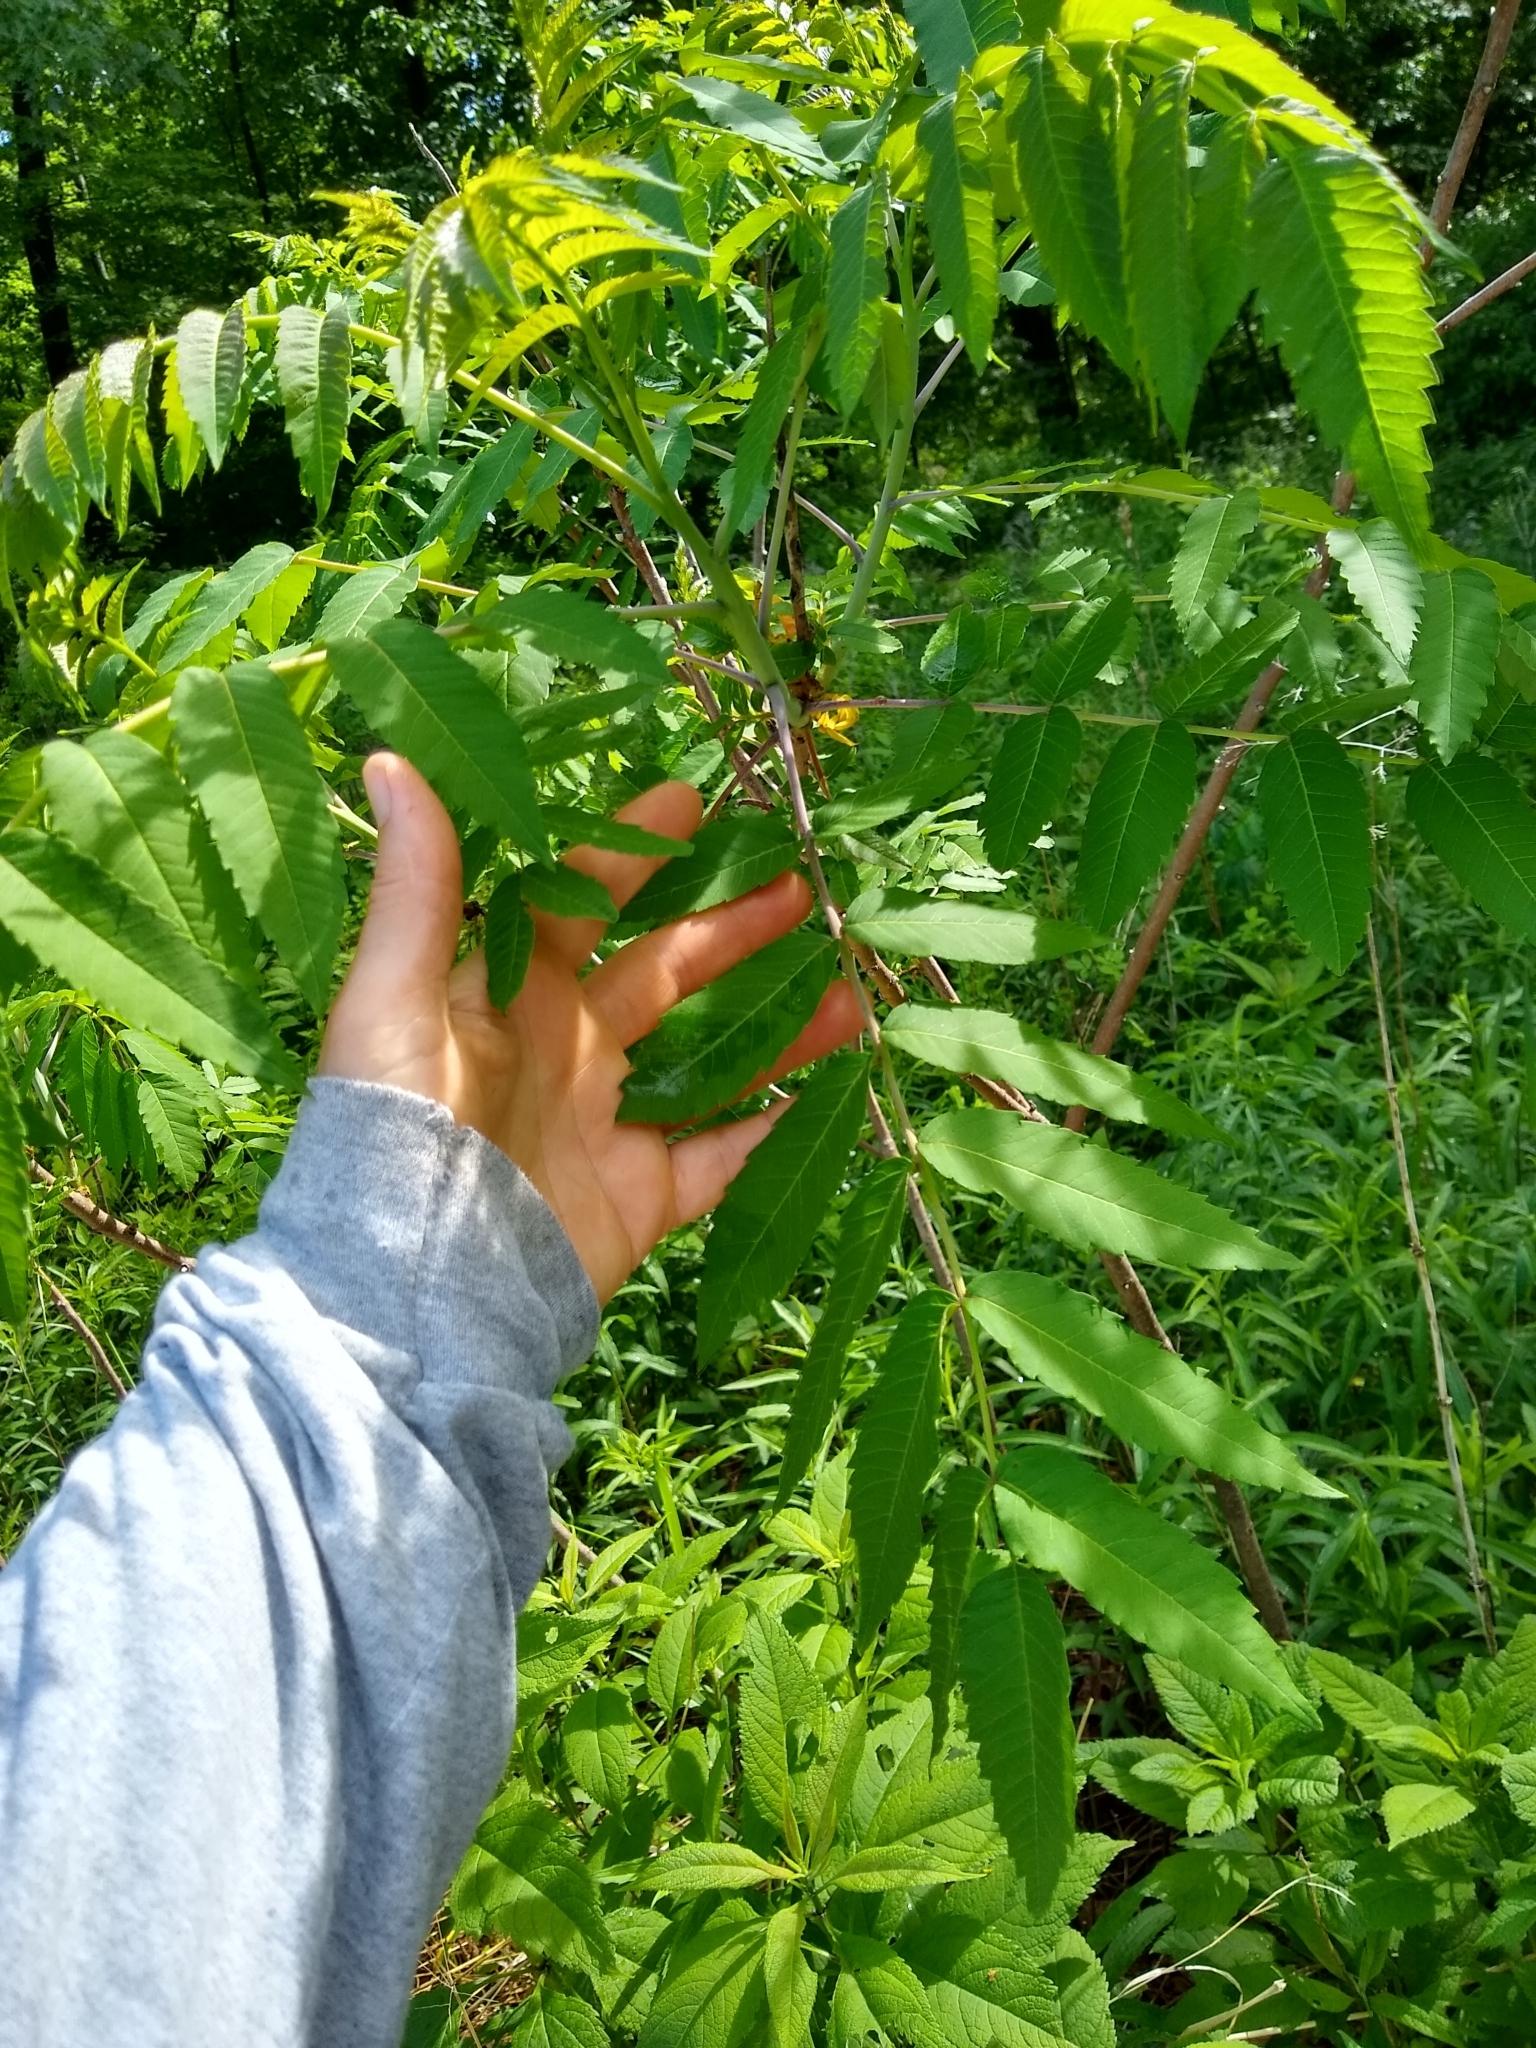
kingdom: Plantae
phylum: Tracheophyta
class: Magnoliopsida
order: Sapindales
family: Anacardiaceae
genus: Rhus
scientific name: Rhus glabra
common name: Scarlet sumac
